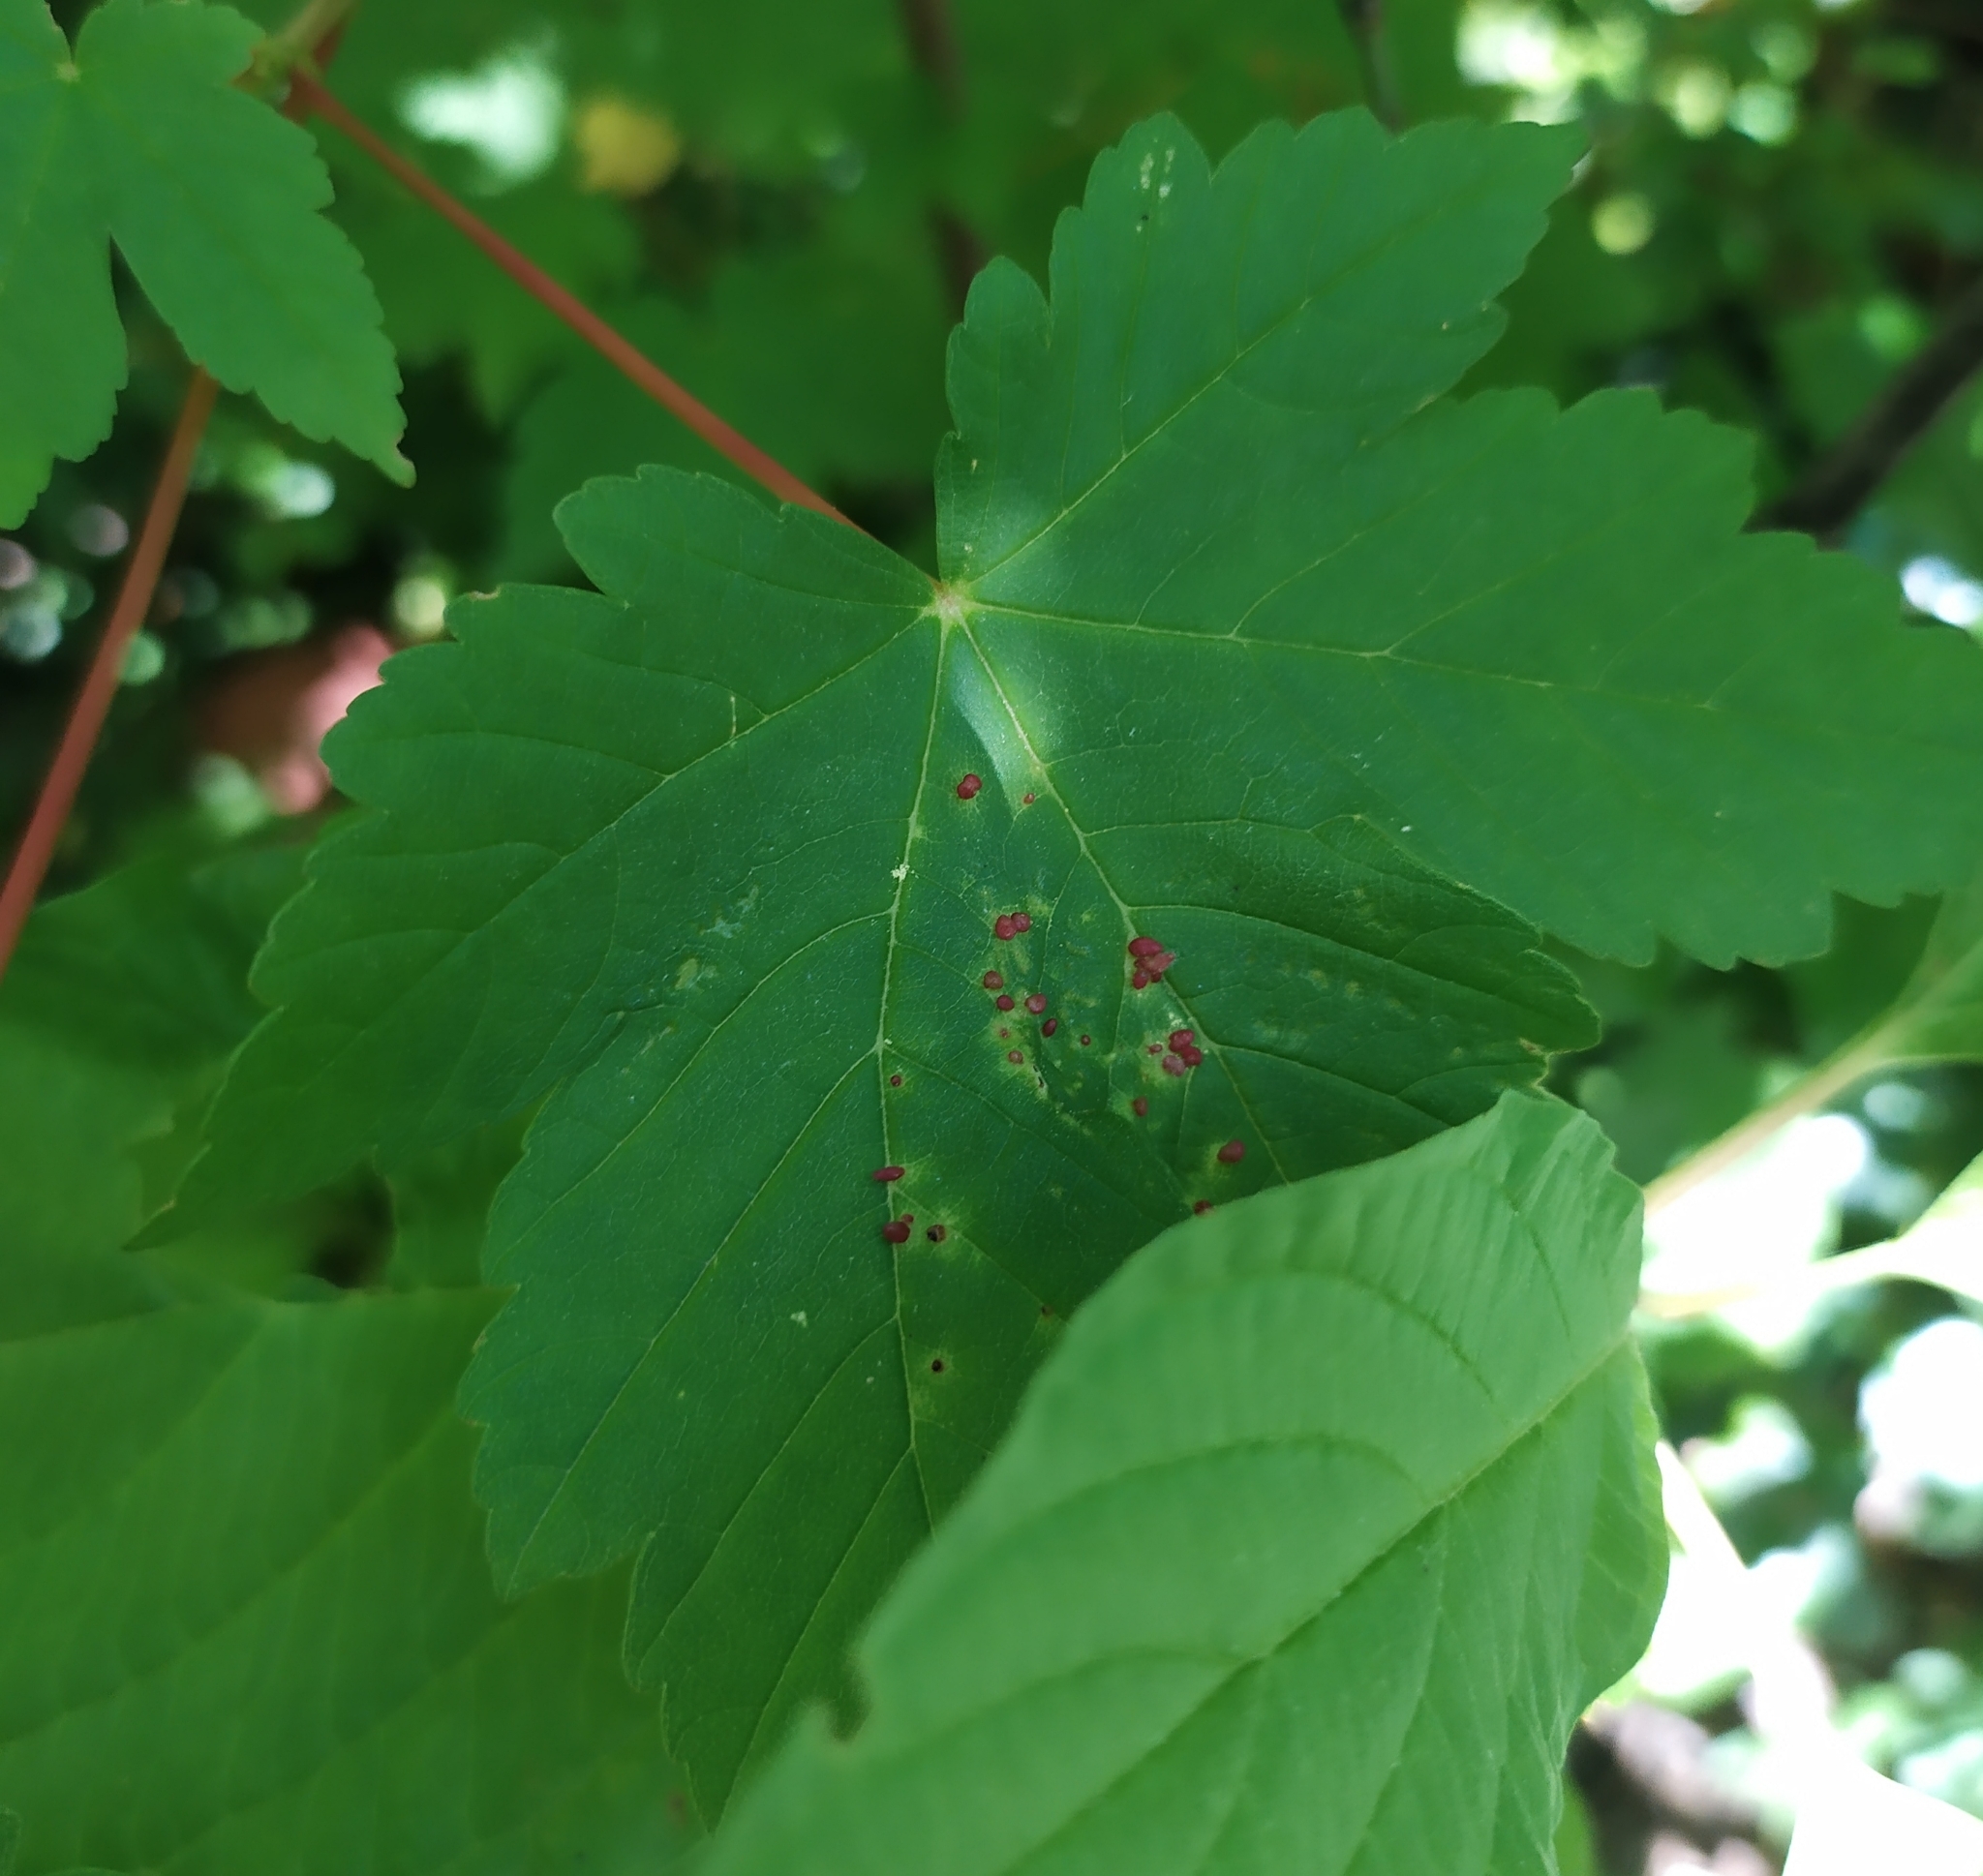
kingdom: Animalia
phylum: Arthropoda
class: Arachnida
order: Trombidiformes
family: Eriophyidae
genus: Aceria
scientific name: Aceria cephaloneus
